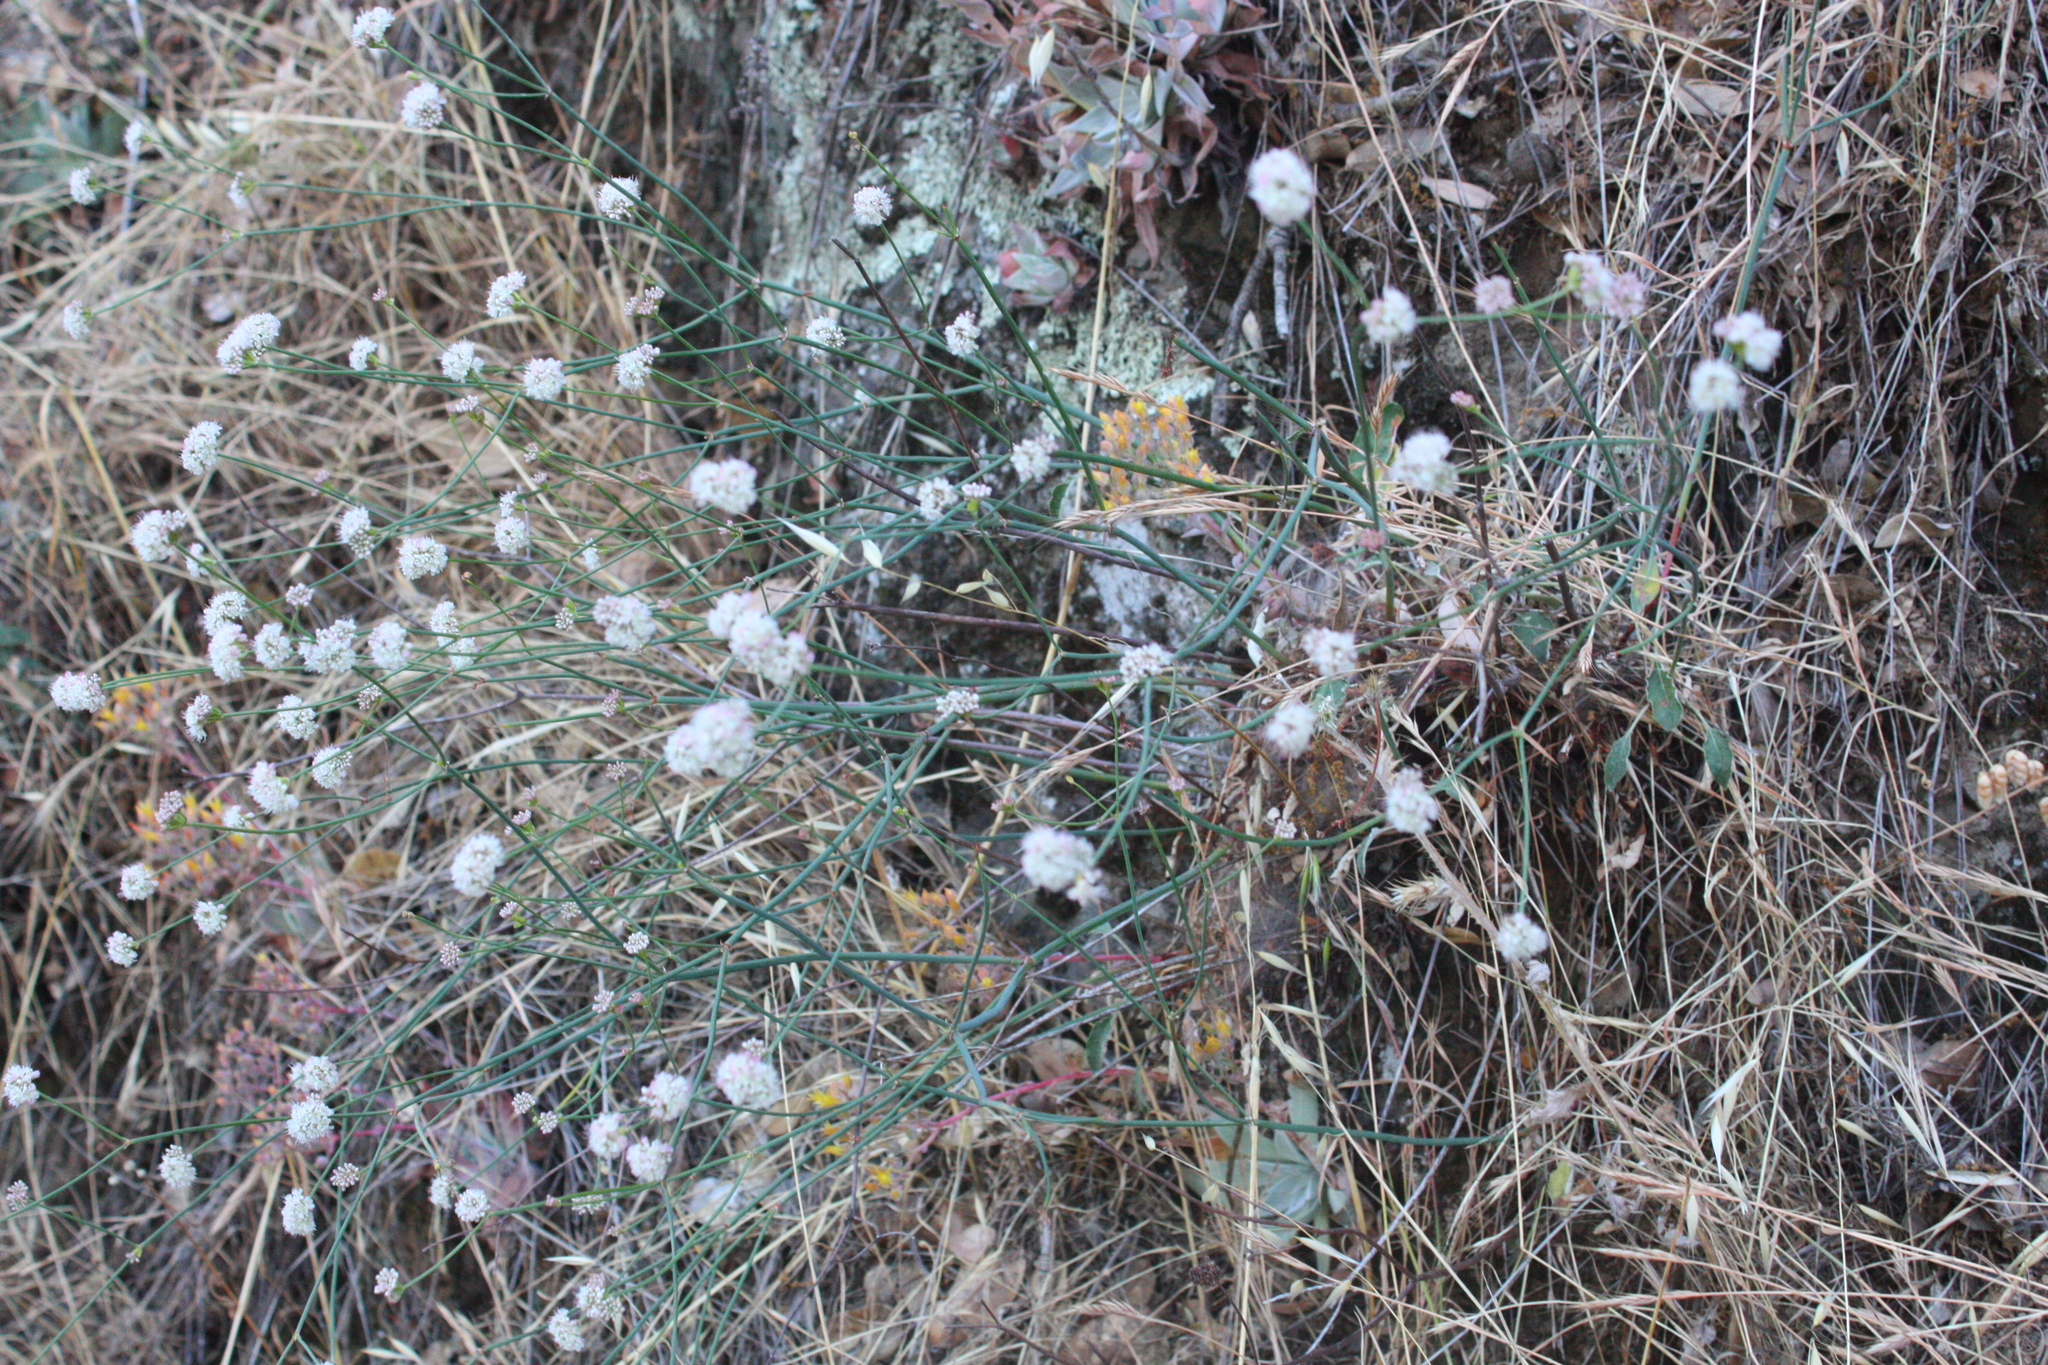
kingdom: Plantae
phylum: Tracheophyta
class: Magnoliopsida
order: Caryophyllales
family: Polygonaceae
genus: Eriogonum
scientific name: Eriogonum nudum
